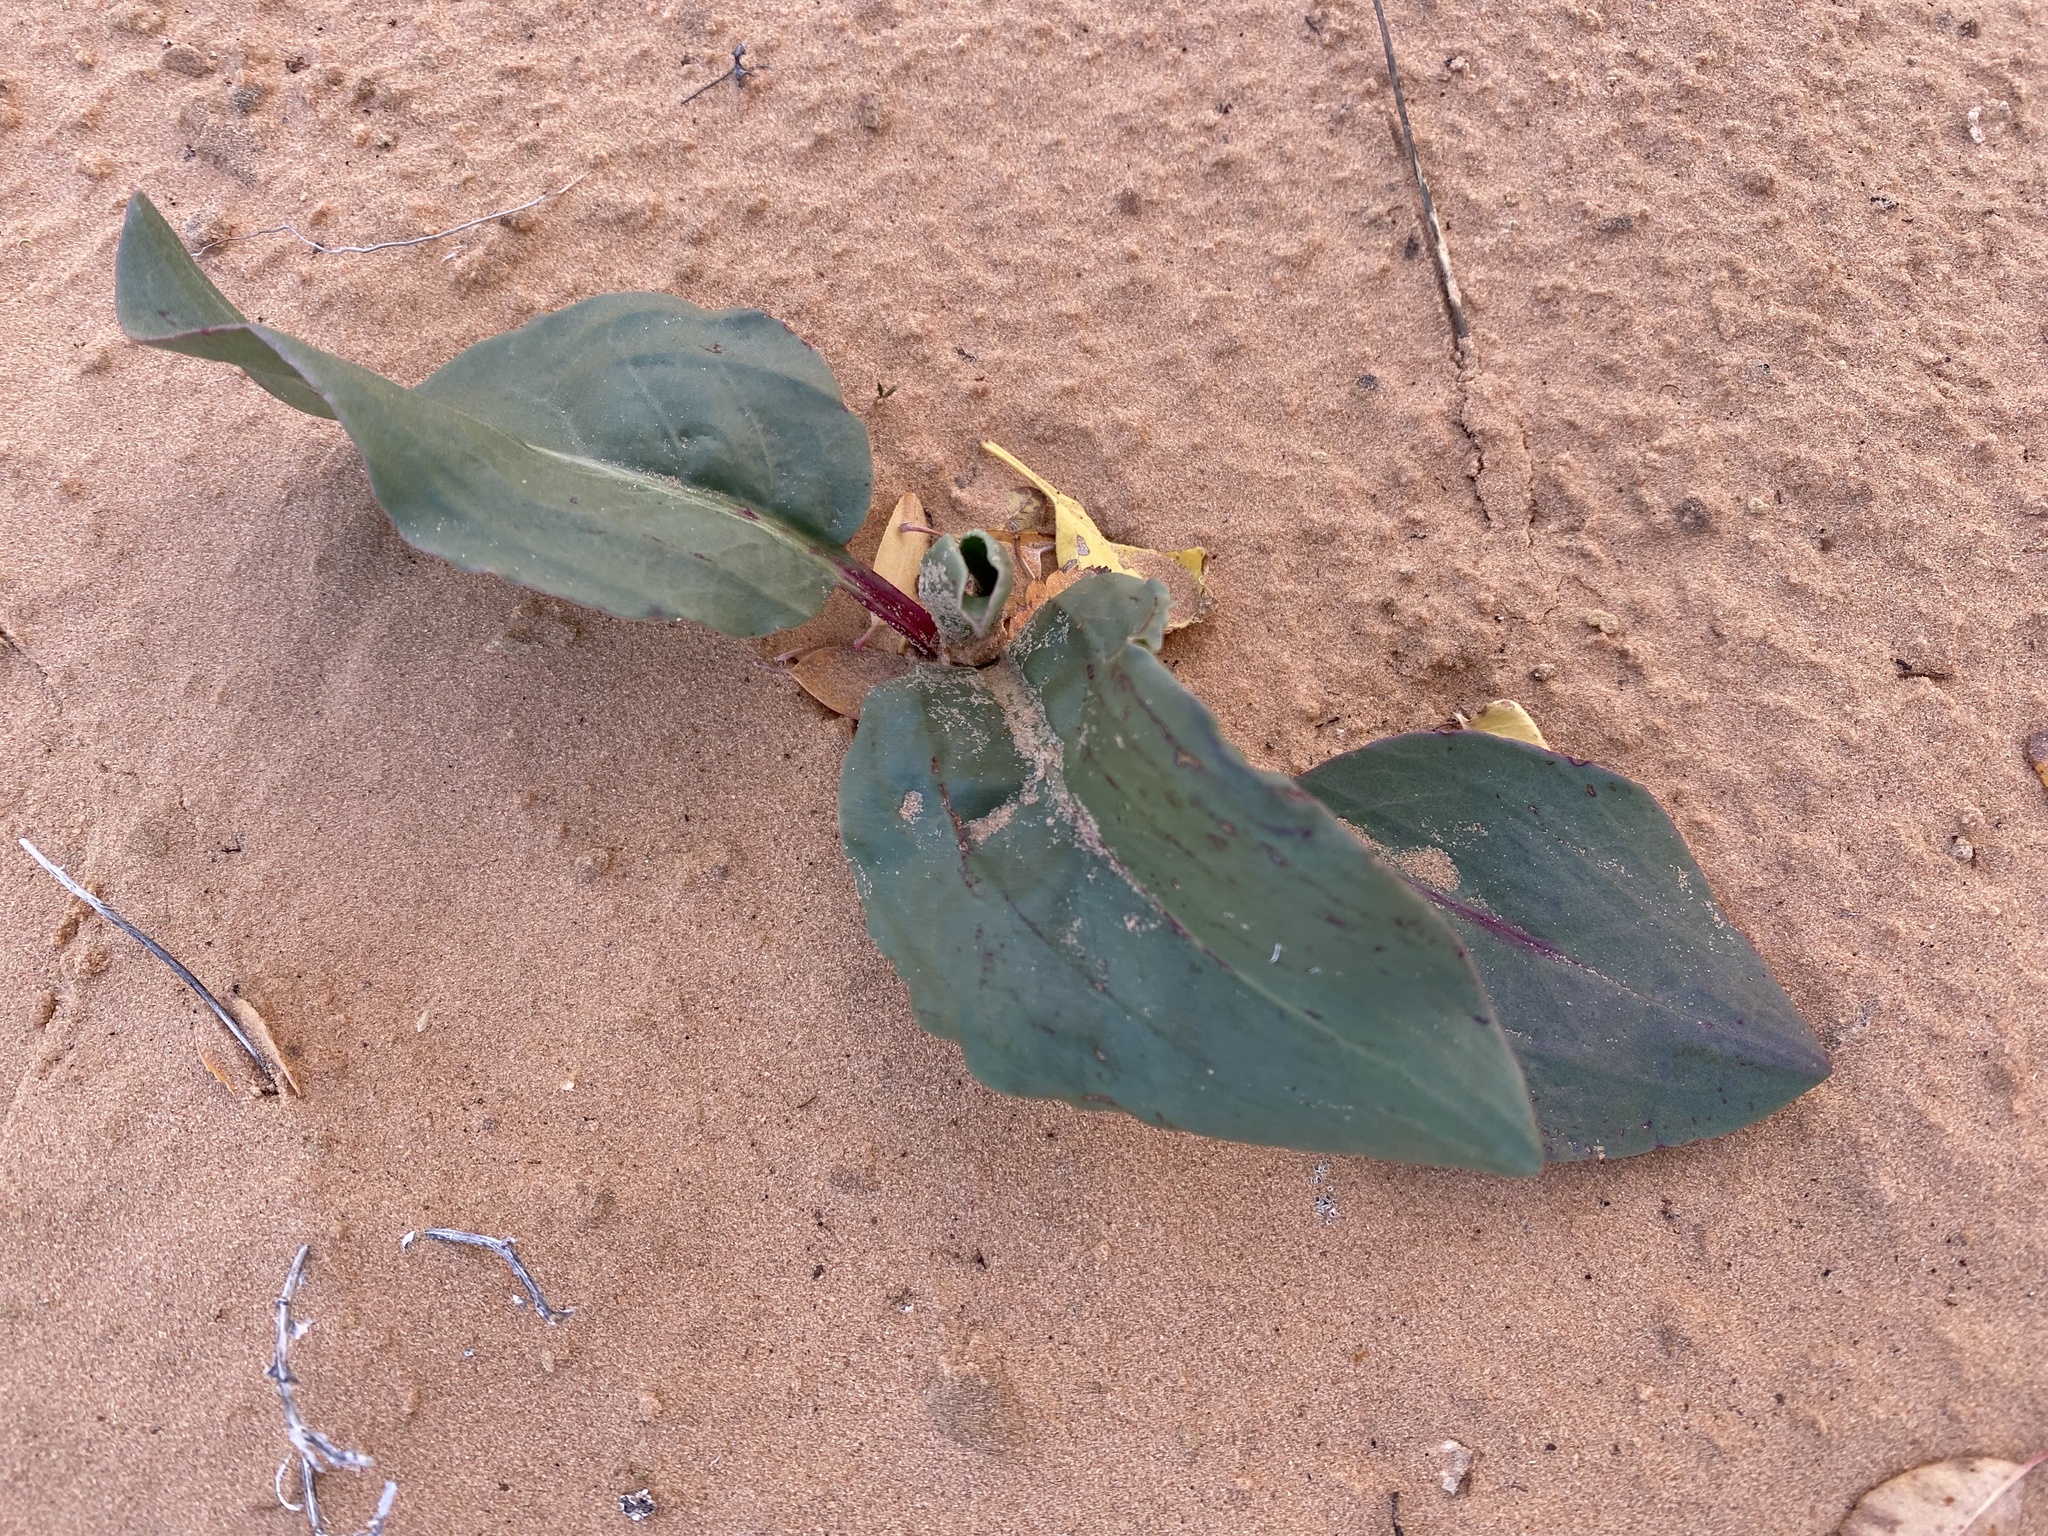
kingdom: Plantae
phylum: Tracheophyta
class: Magnoliopsida
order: Caryophyllales
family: Polygonaceae
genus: Rumex
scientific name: Rumex hymenosepalus
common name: Ganagra
